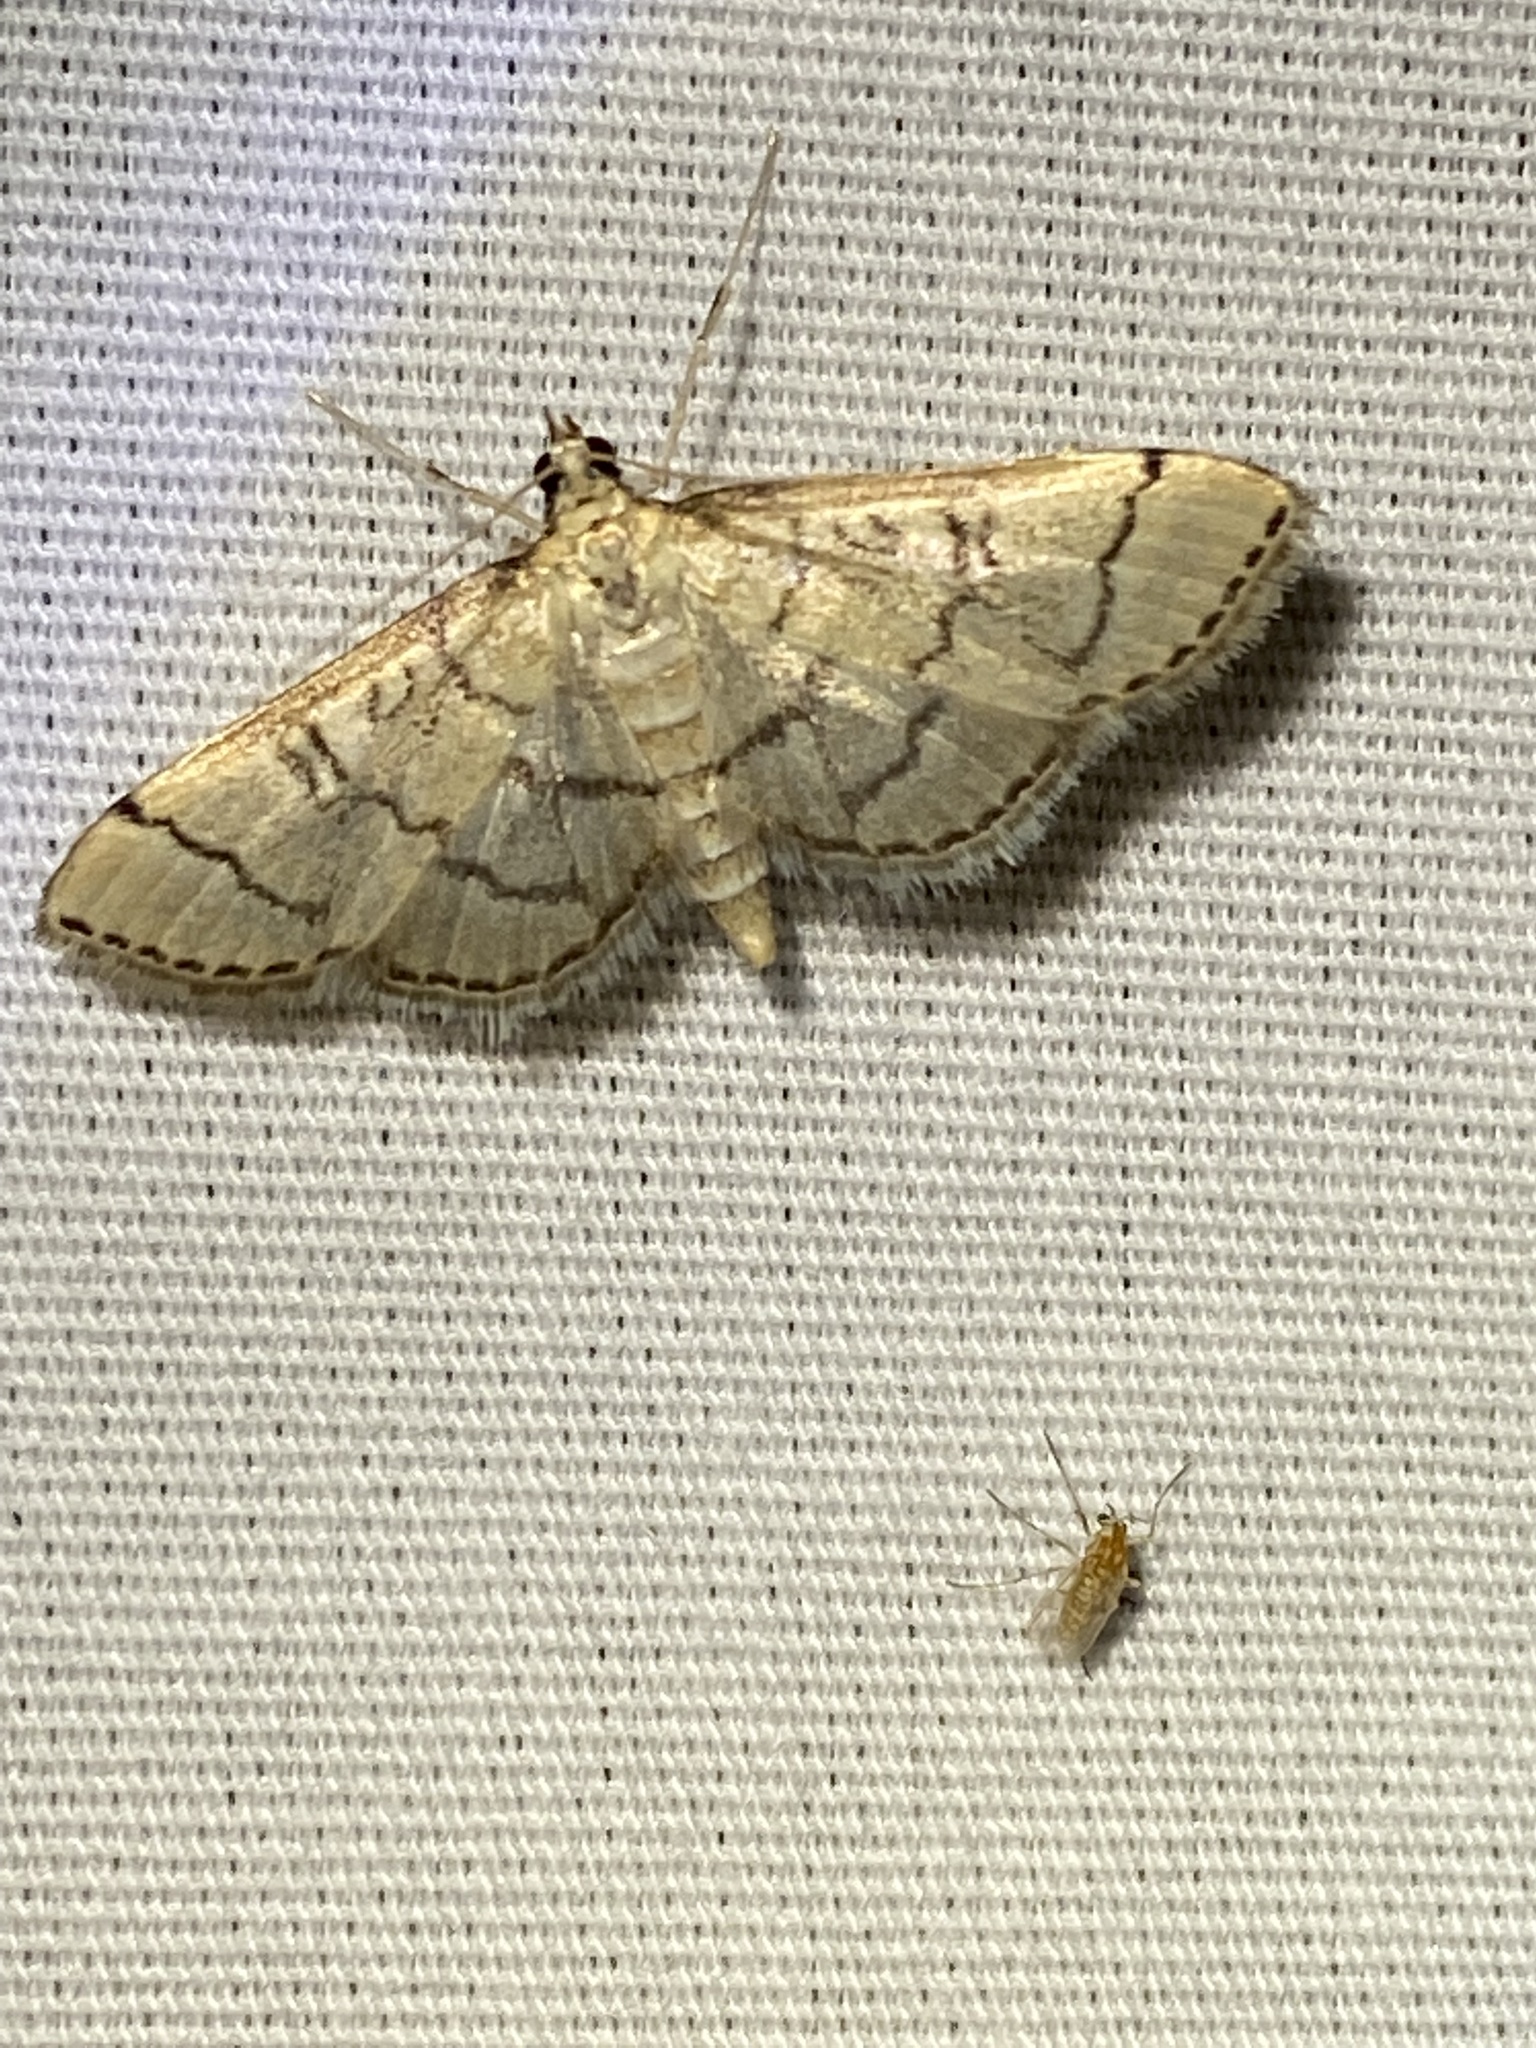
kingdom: Animalia
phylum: Arthropoda
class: Insecta
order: Lepidoptera
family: Crambidae
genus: Lamprosema
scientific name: Lamprosema Blepharomastix ranalis
